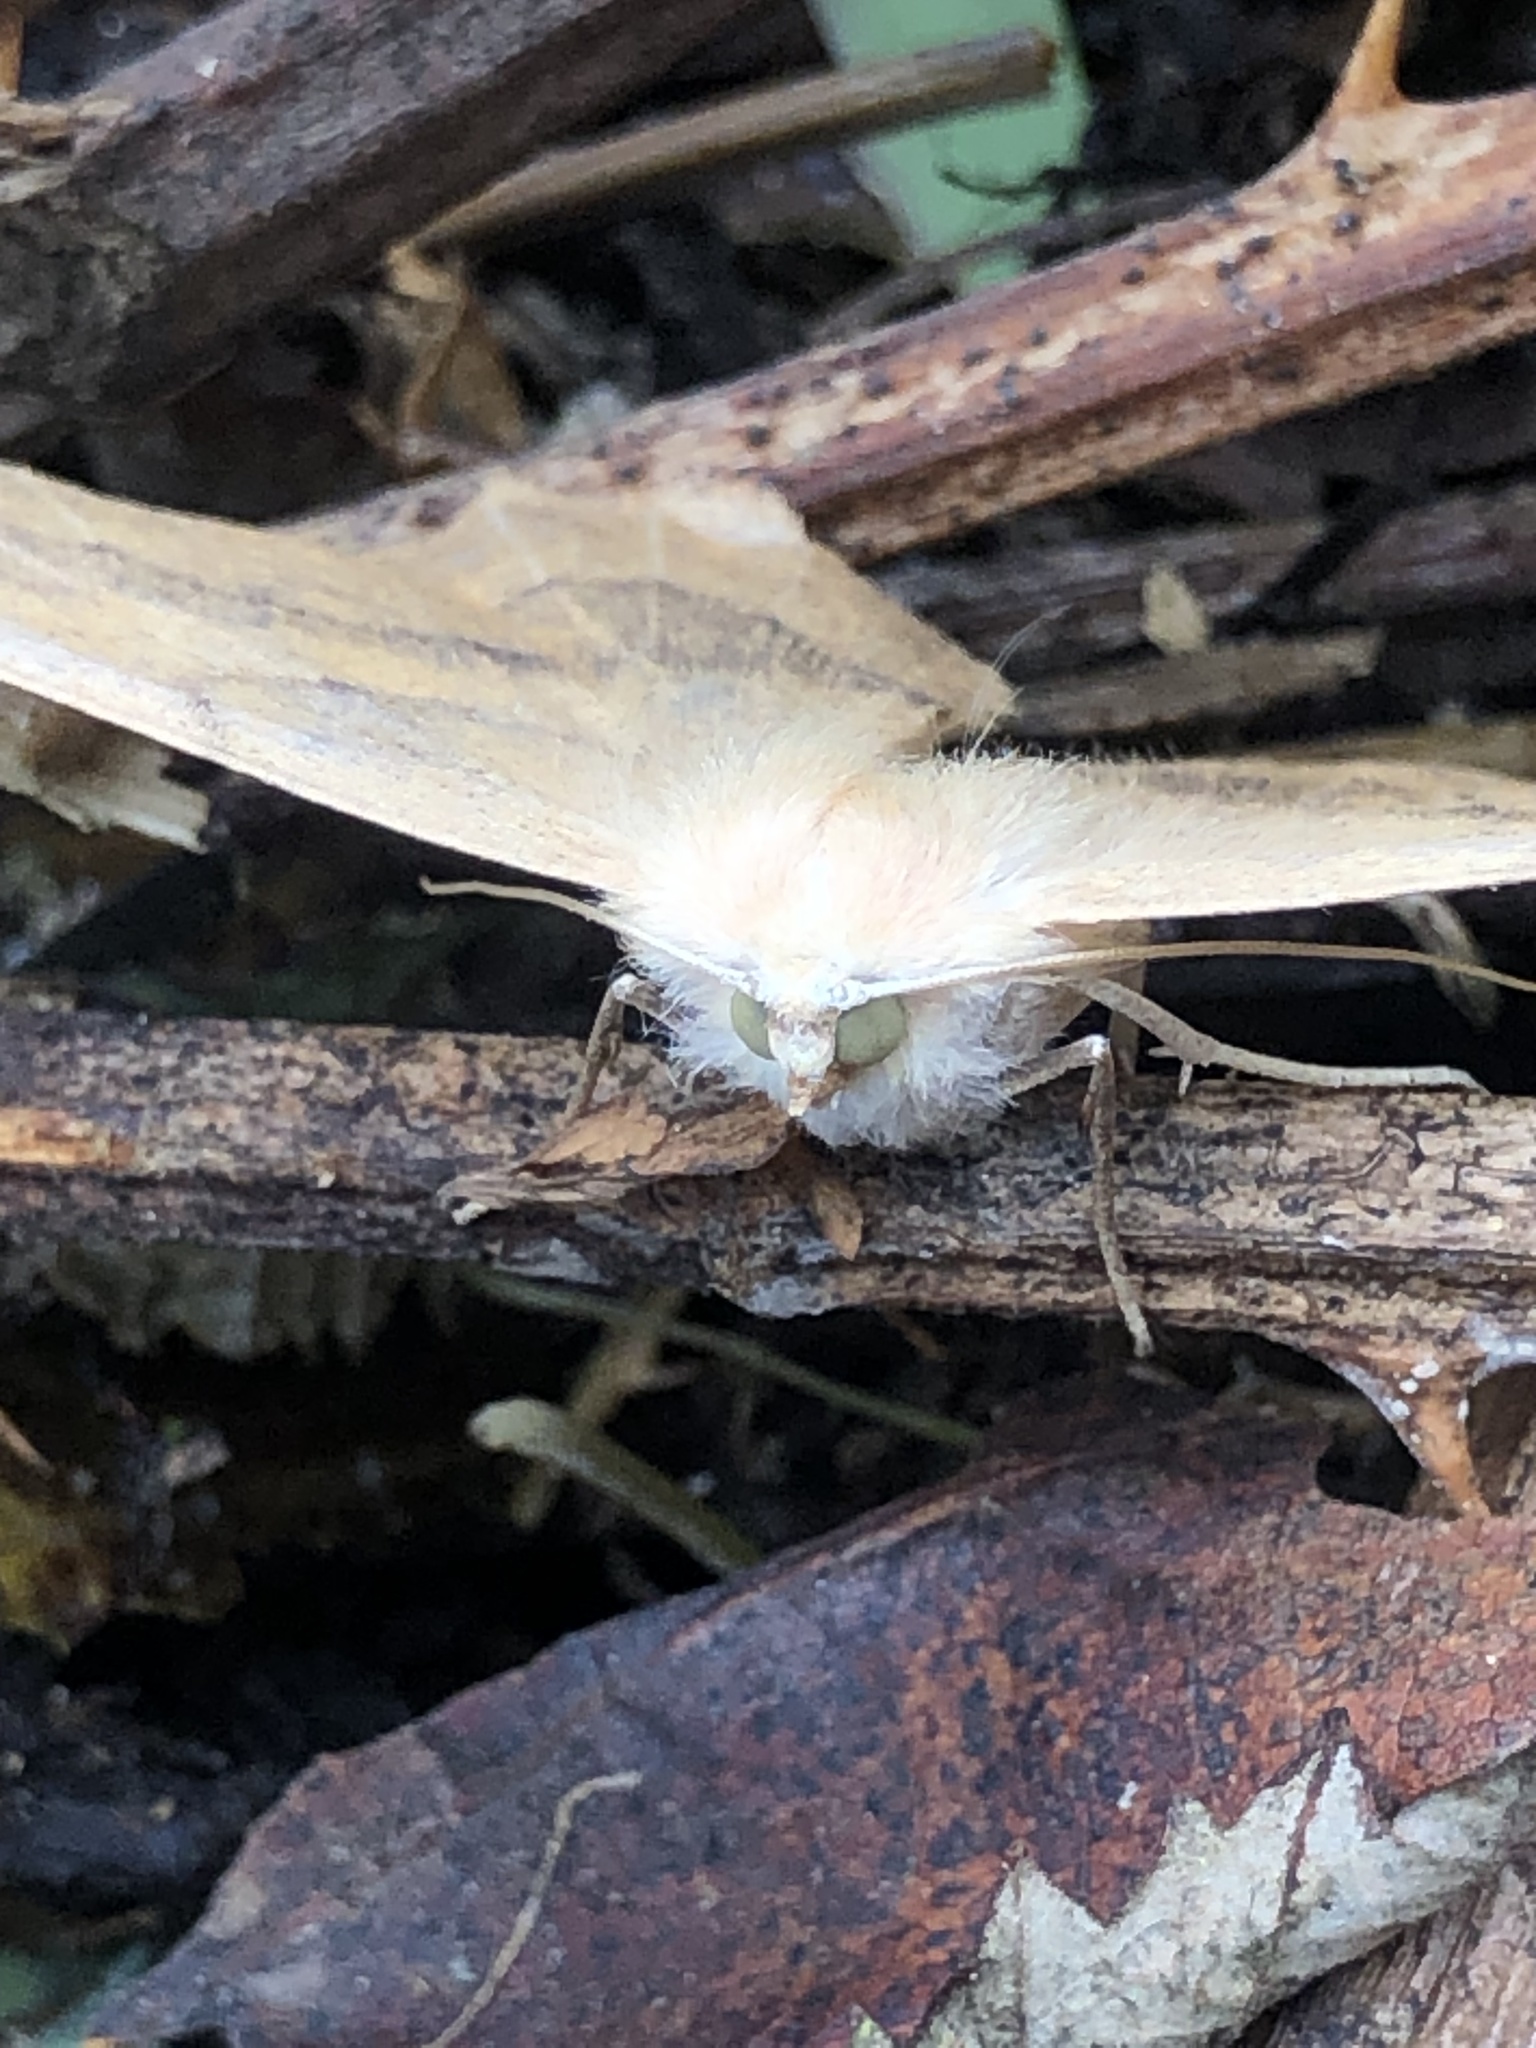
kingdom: Animalia
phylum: Arthropoda
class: Insecta
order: Lepidoptera
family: Geometridae
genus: Sabulodes
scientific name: Sabulodes aegrotata
